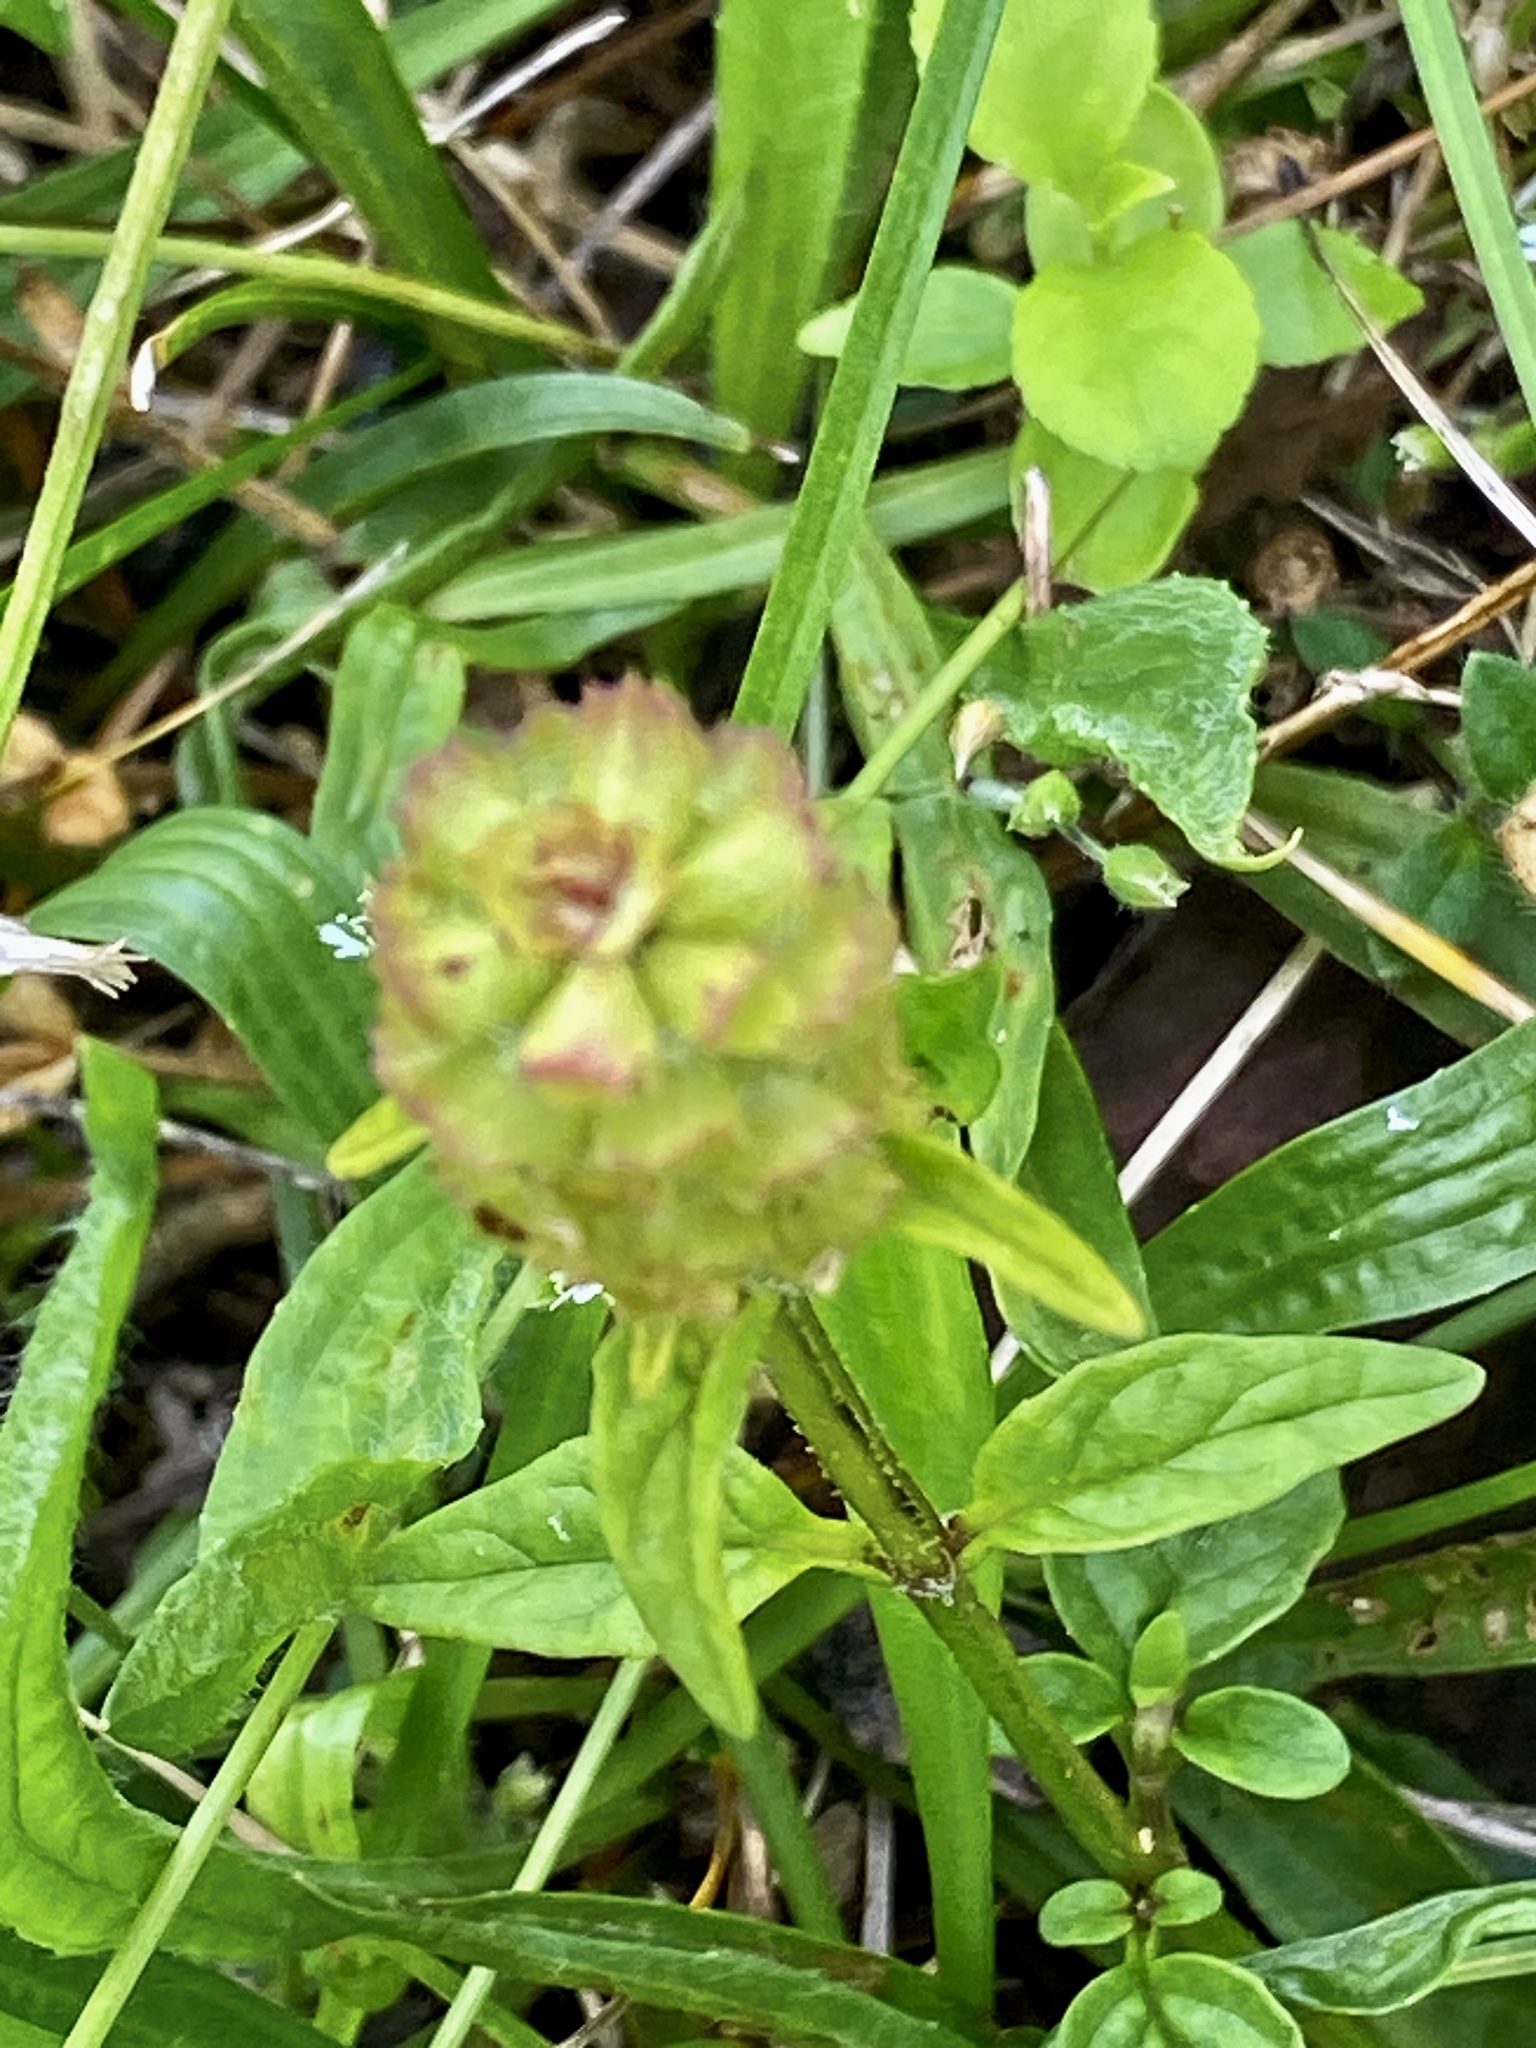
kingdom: Plantae
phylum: Tracheophyta
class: Magnoliopsida
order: Lamiales
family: Lamiaceae
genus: Prunella
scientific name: Prunella vulgaris
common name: Heal-all
